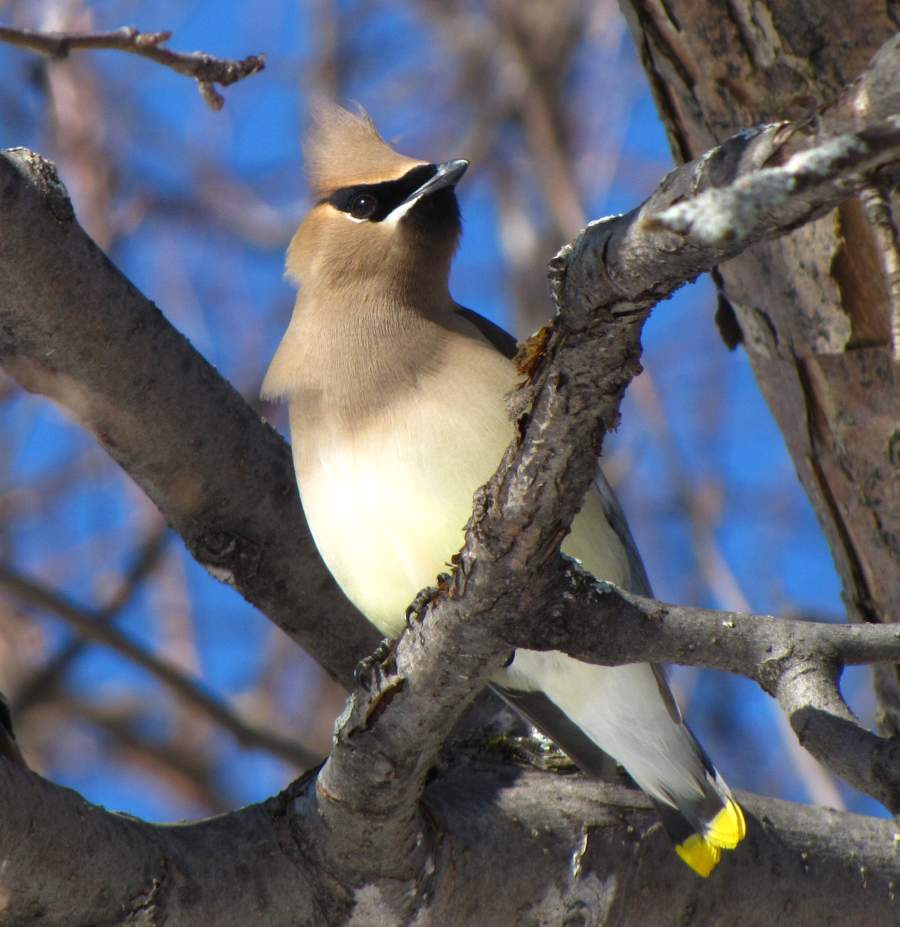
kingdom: Animalia
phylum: Chordata
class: Aves
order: Passeriformes
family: Bombycillidae
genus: Bombycilla
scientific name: Bombycilla cedrorum
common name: Cedar waxwing
